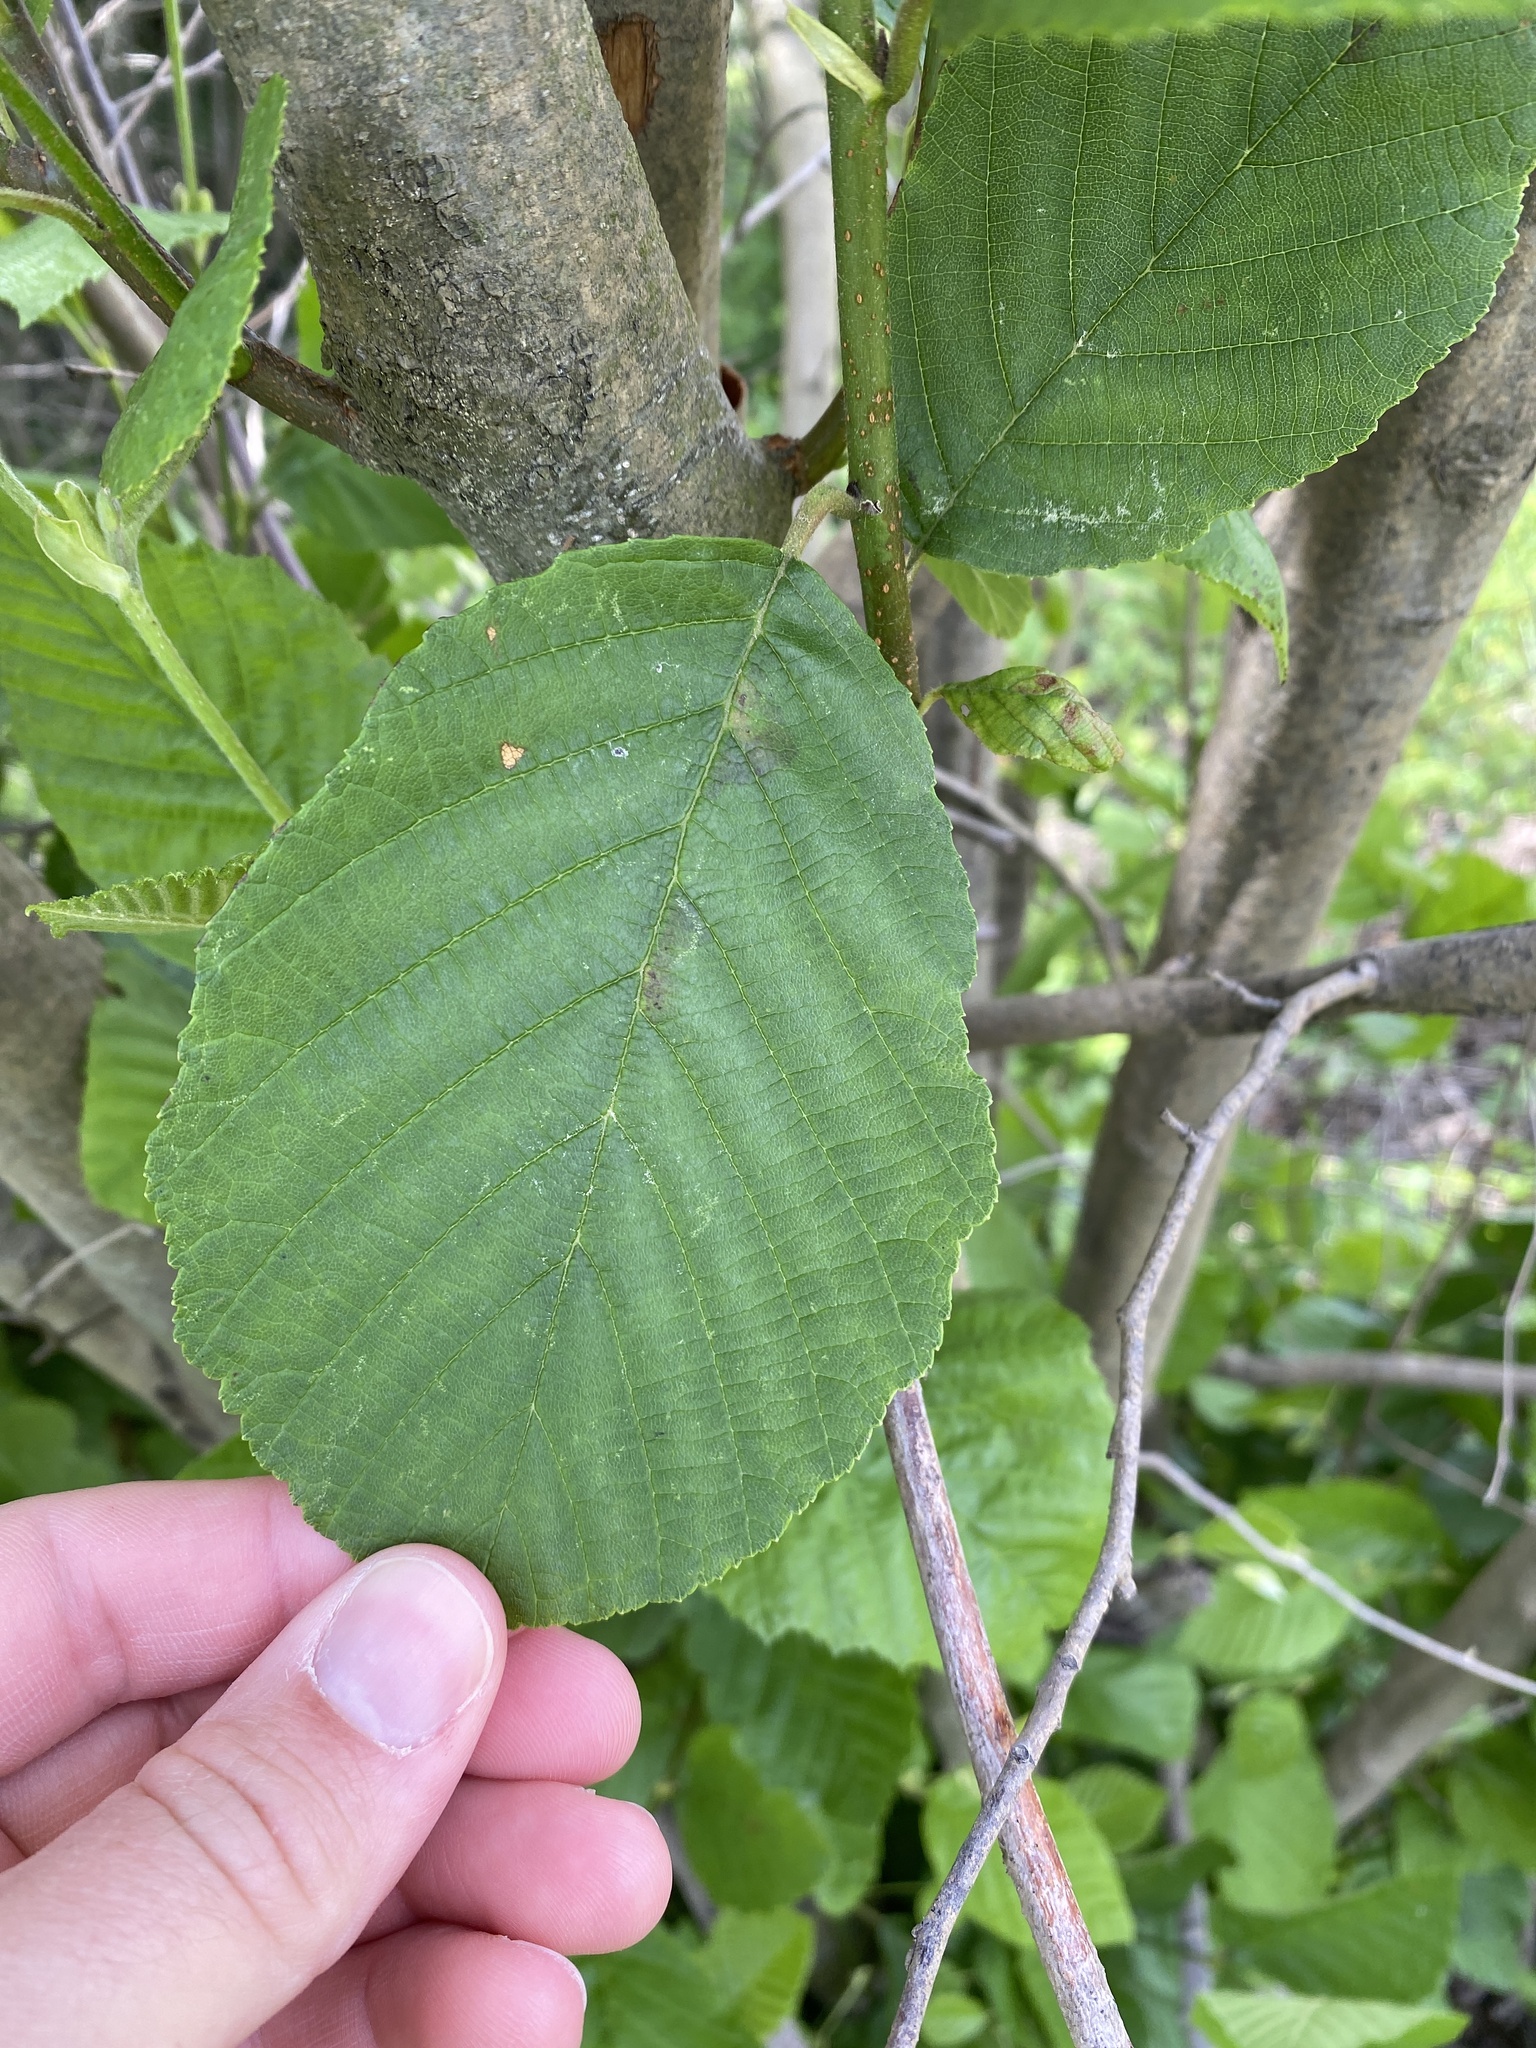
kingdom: Plantae
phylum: Tracheophyta
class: Magnoliopsida
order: Fagales
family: Betulaceae
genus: Alnus
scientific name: Alnus serrulata
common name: Hazel alder
